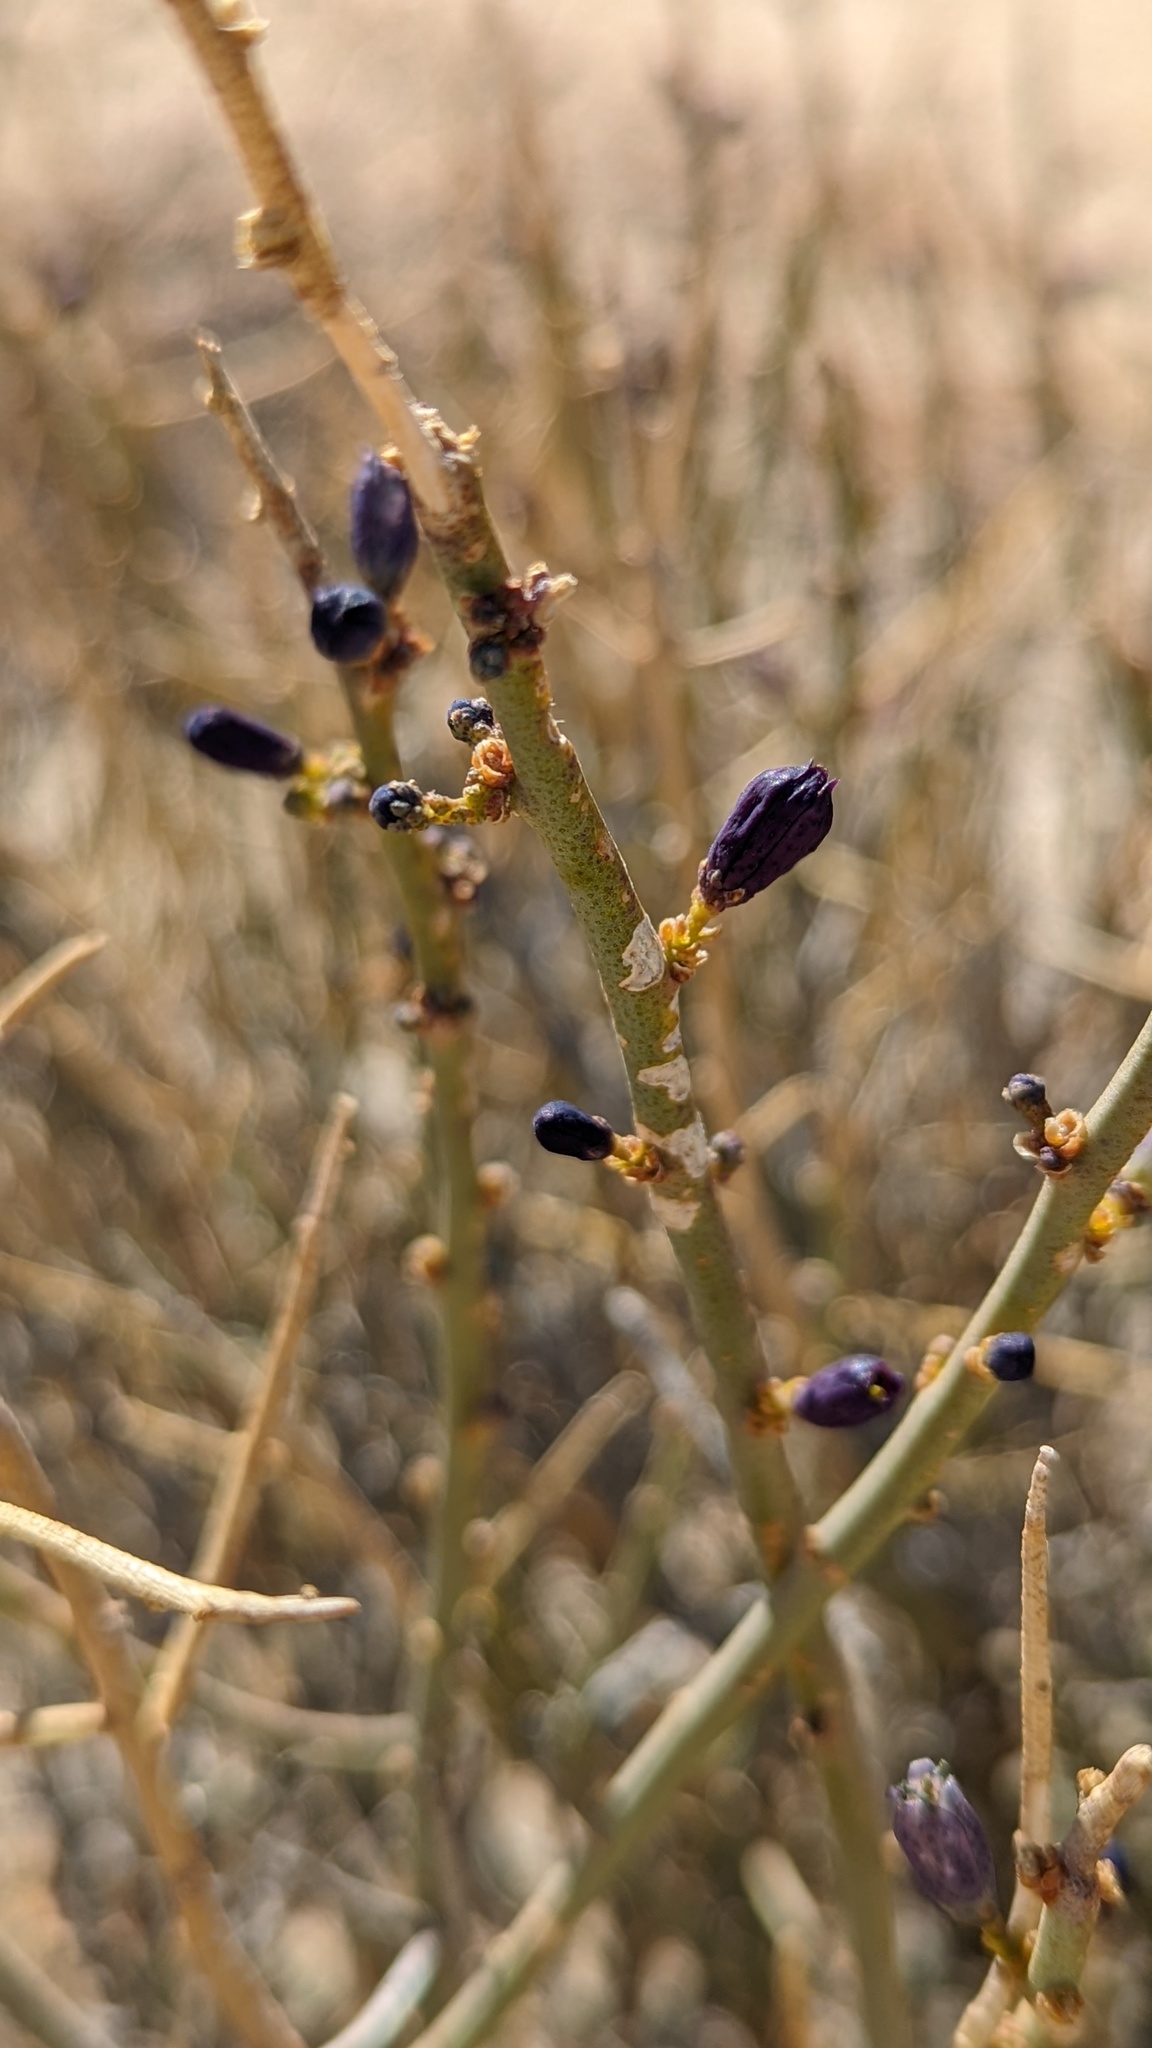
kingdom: Plantae
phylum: Tracheophyta
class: Magnoliopsida
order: Sapindales
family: Rutaceae
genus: Thamnosma
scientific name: Thamnosma montana
